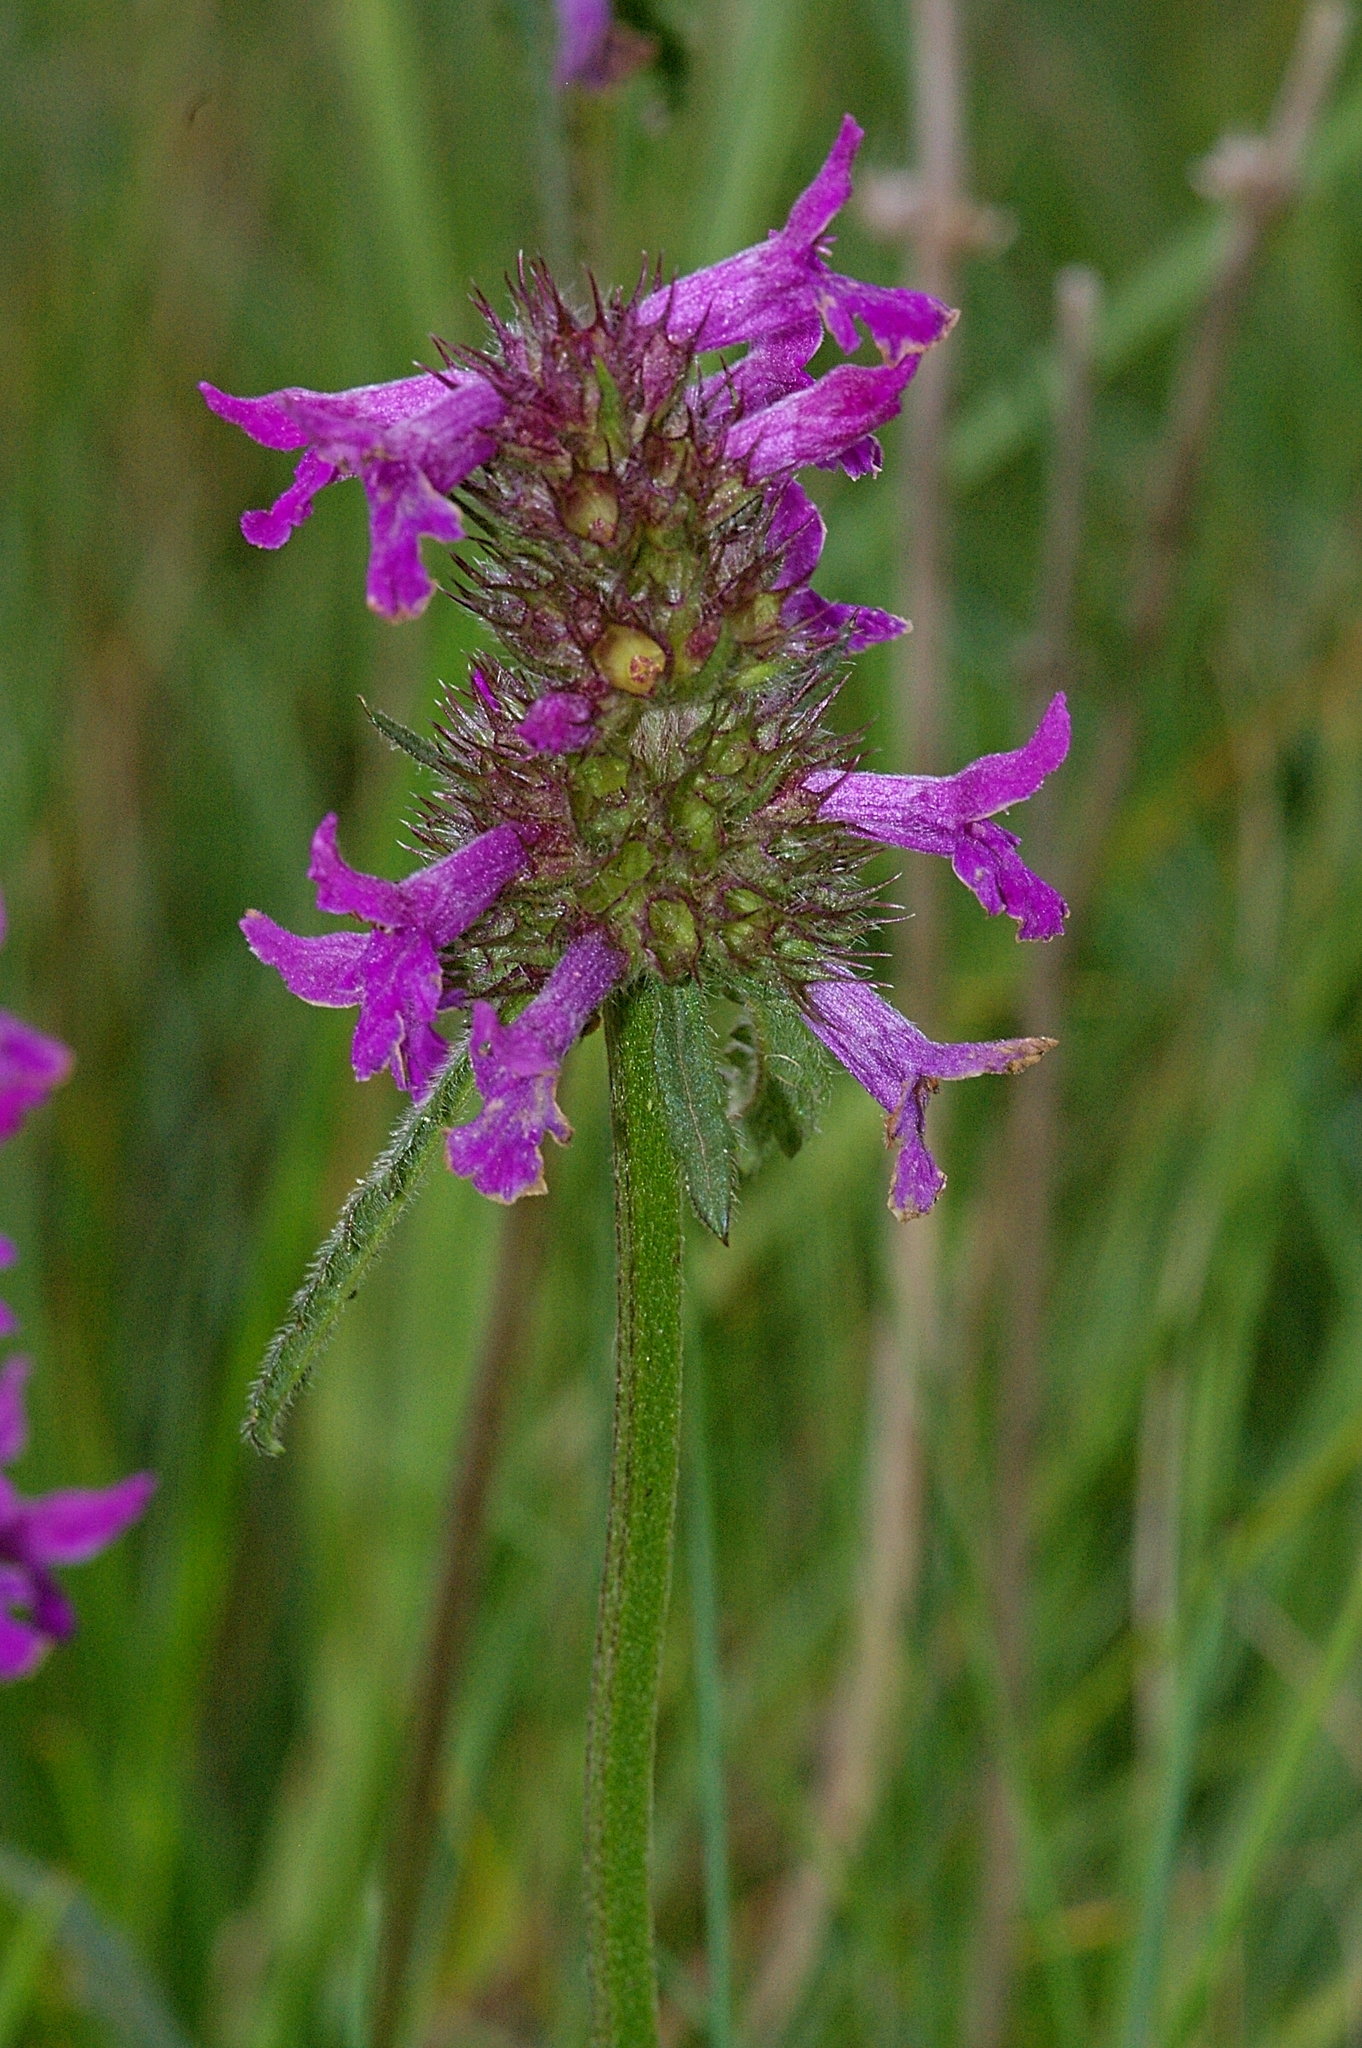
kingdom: Plantae
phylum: Tracheophyta
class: Magnoliopsida
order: Lamiales
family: Lamiaceae
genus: Betonica
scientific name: Betonica officinalis
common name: Bishop's-wort
